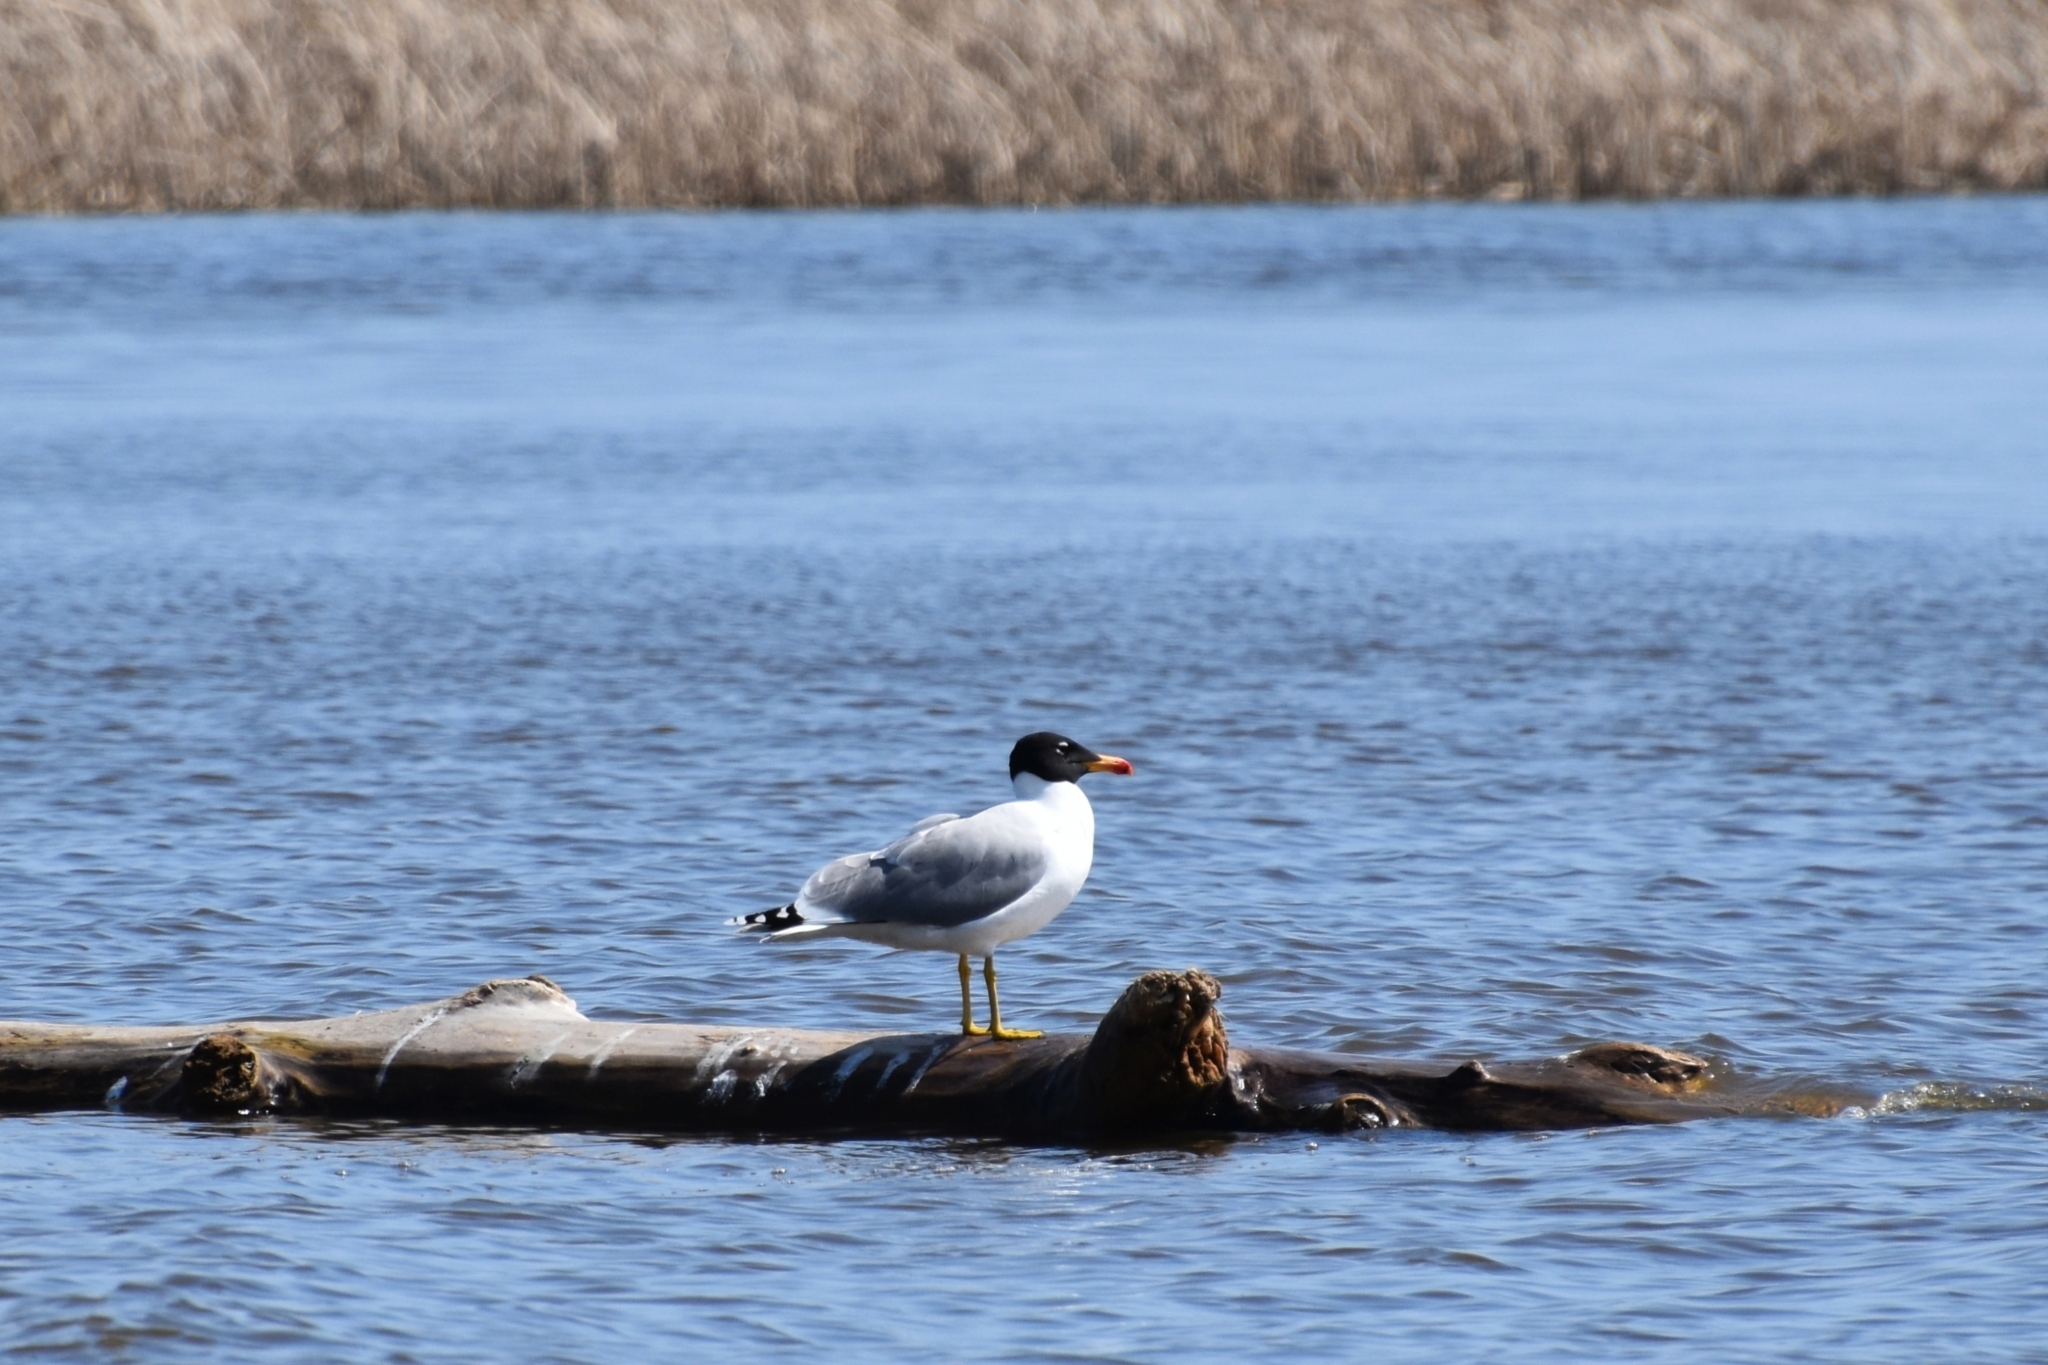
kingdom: Animalia
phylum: Chordata
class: Aves
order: Charadriiformes
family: Laridae
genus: Ichthyaetus
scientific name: Ichthyaetus ichthyaetus
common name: Pallas's gull
